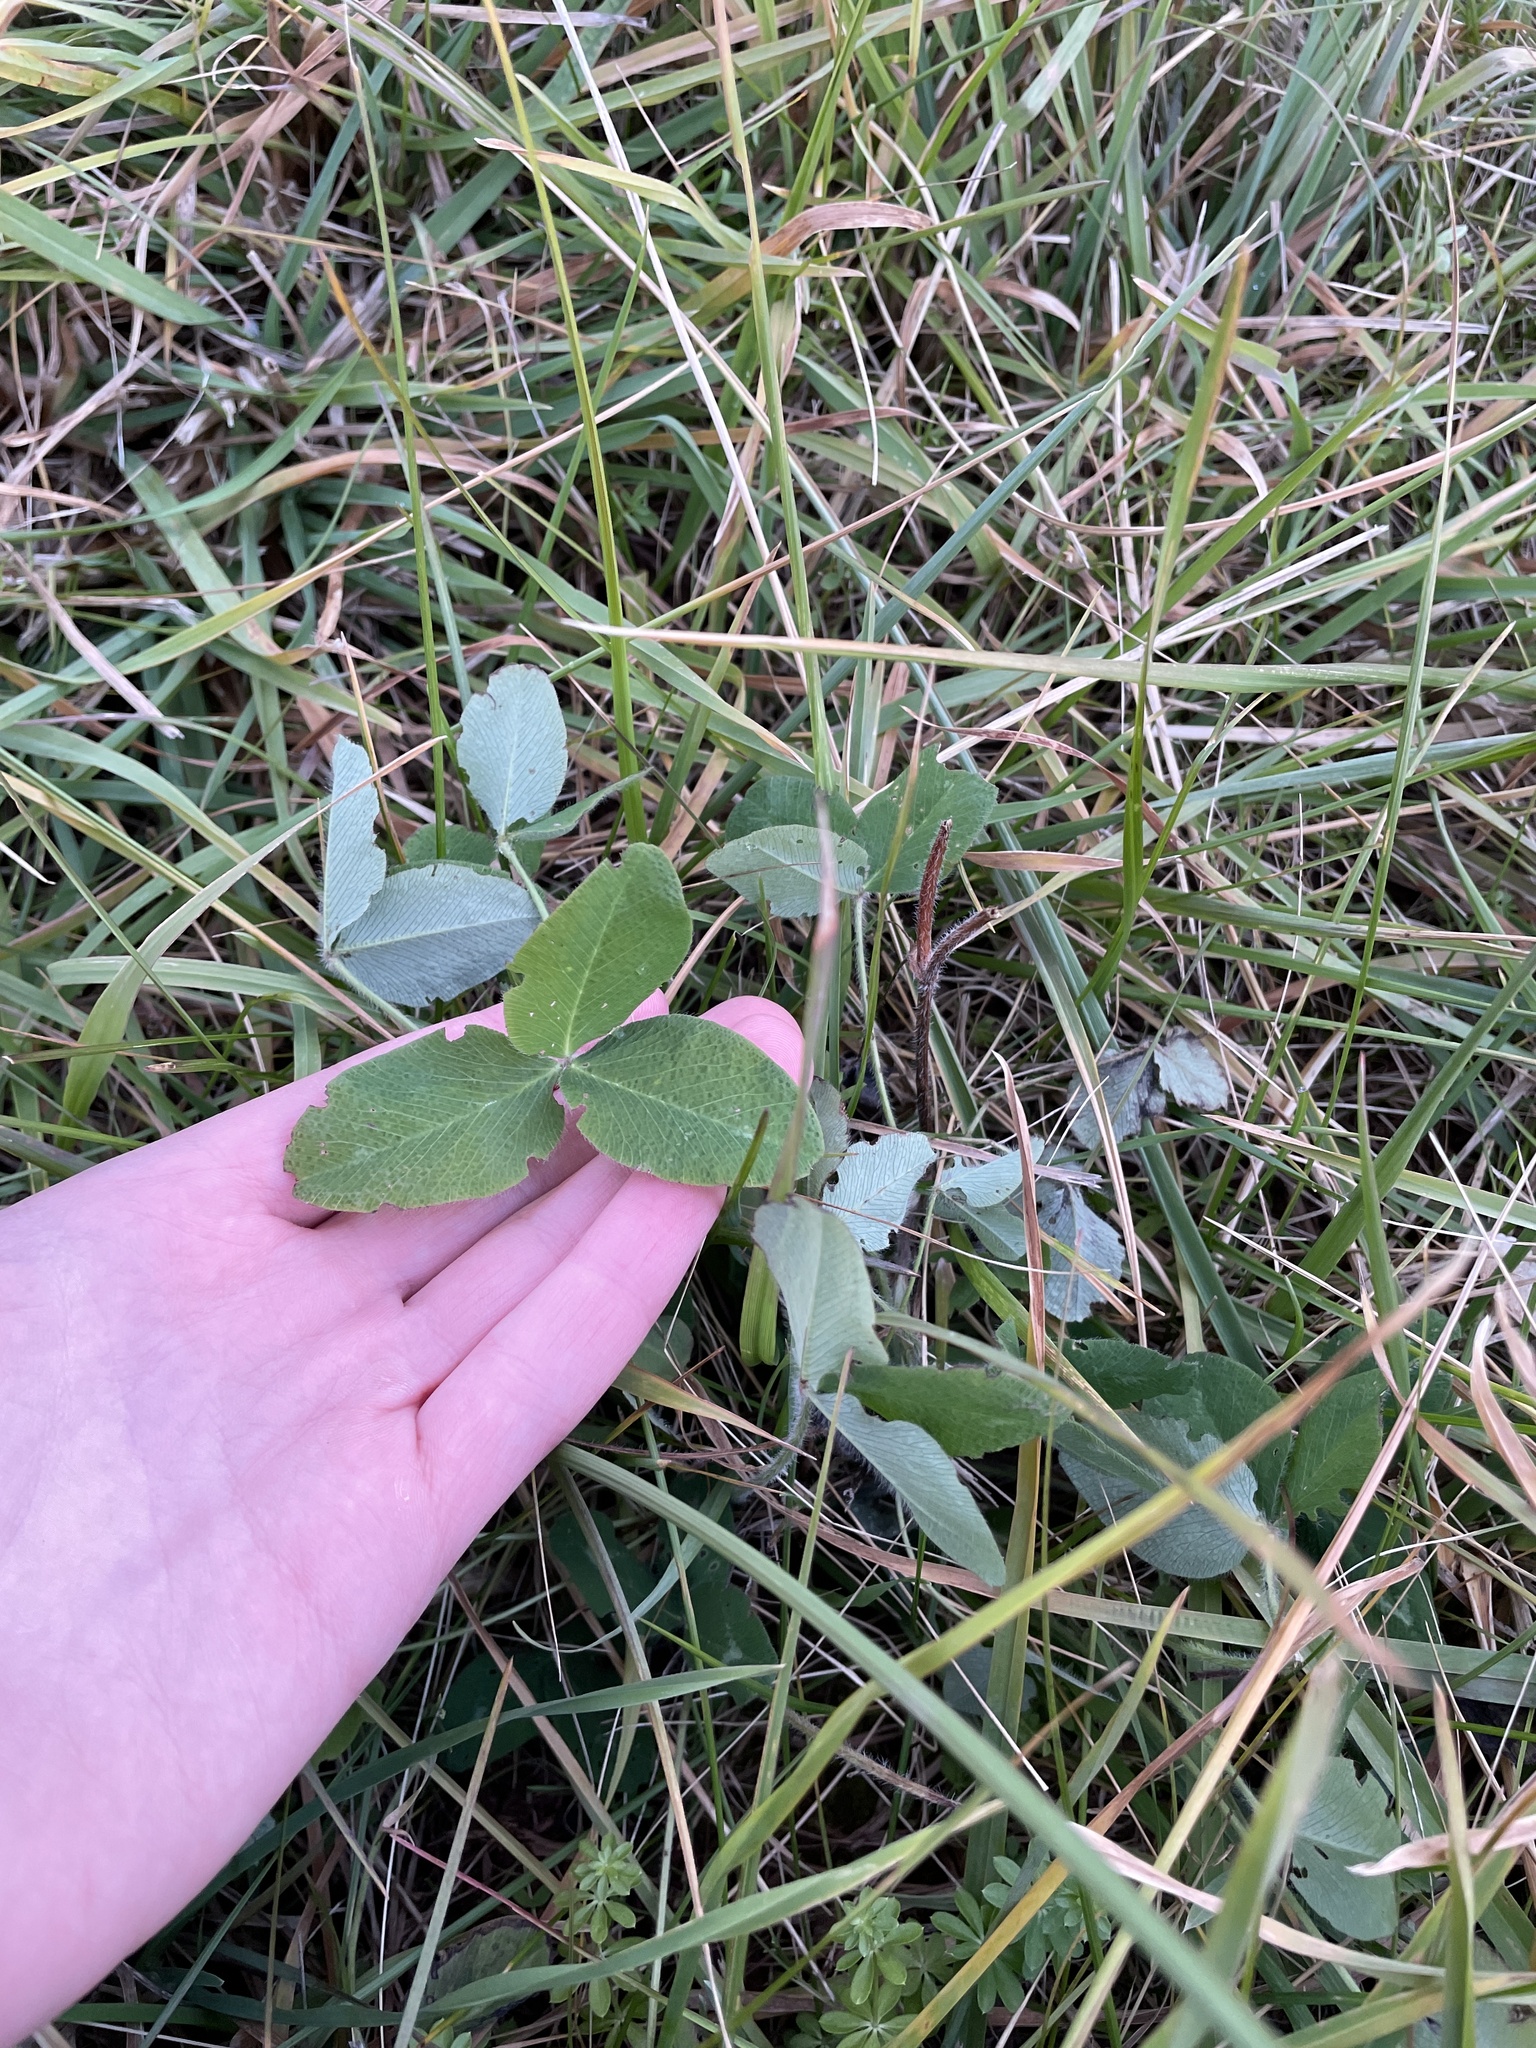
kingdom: Plantae
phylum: Tracheophyta
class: Magnoliopsida
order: Fabales
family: Fabaceae
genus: Trifolium
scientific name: Trifolium pratense
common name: Red clover
